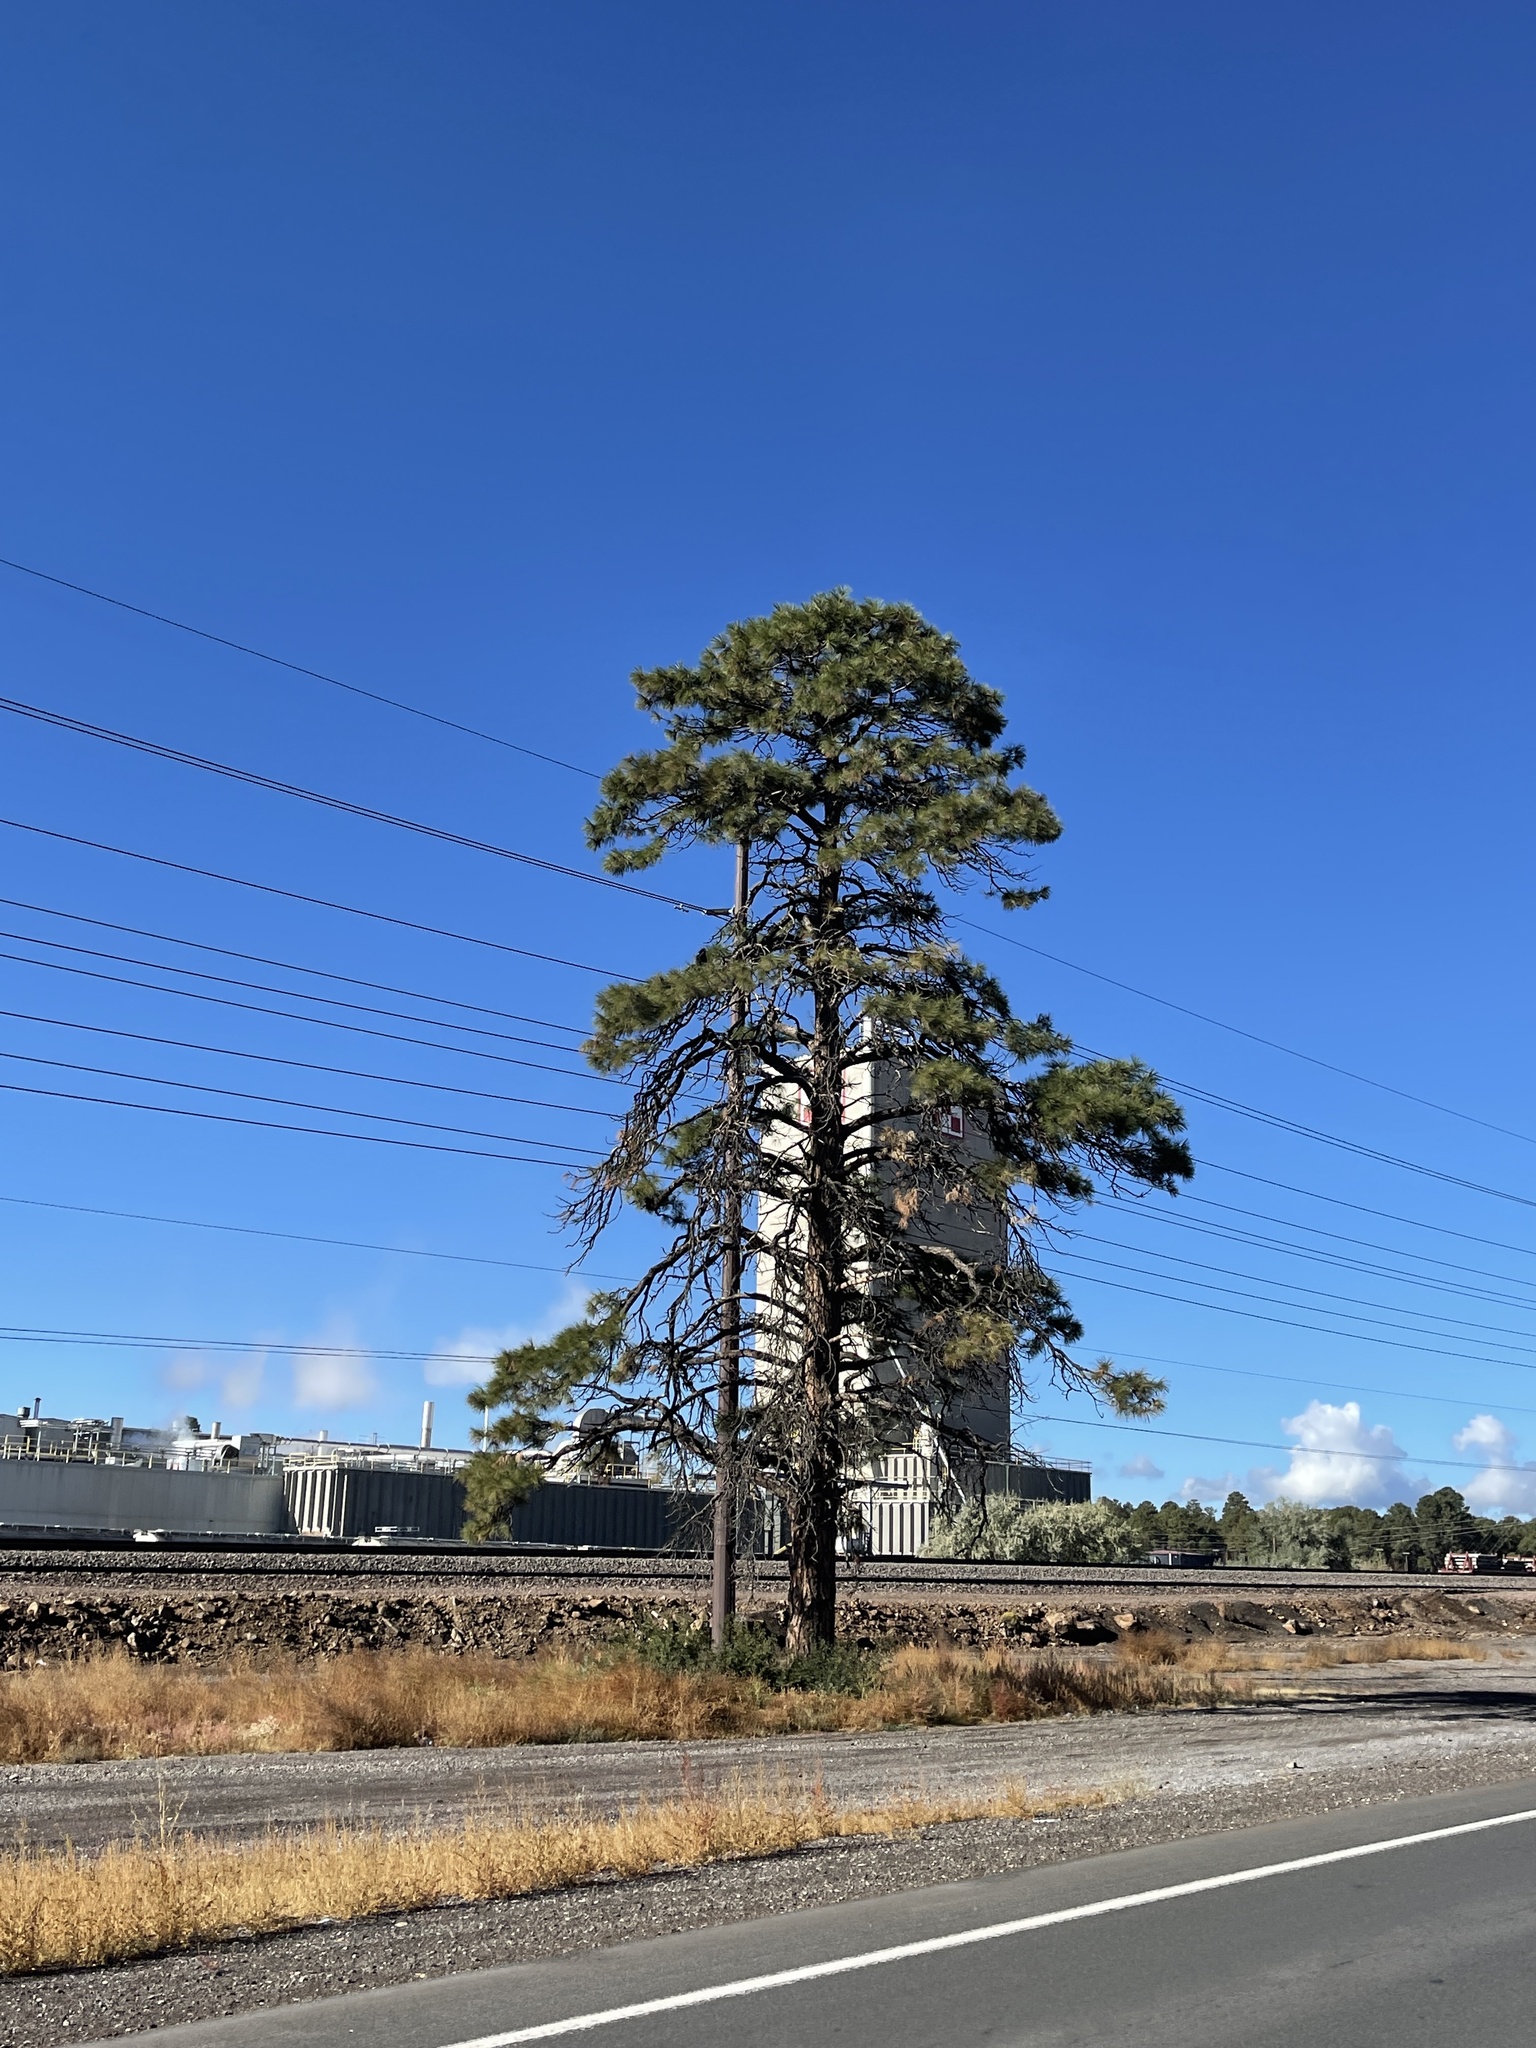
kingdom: Plantae
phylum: Tracheophyta
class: Pinopsida
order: Pinales
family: Pinaceae
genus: Pinus
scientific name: Pinus ponderosa
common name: Western yellow-pine
